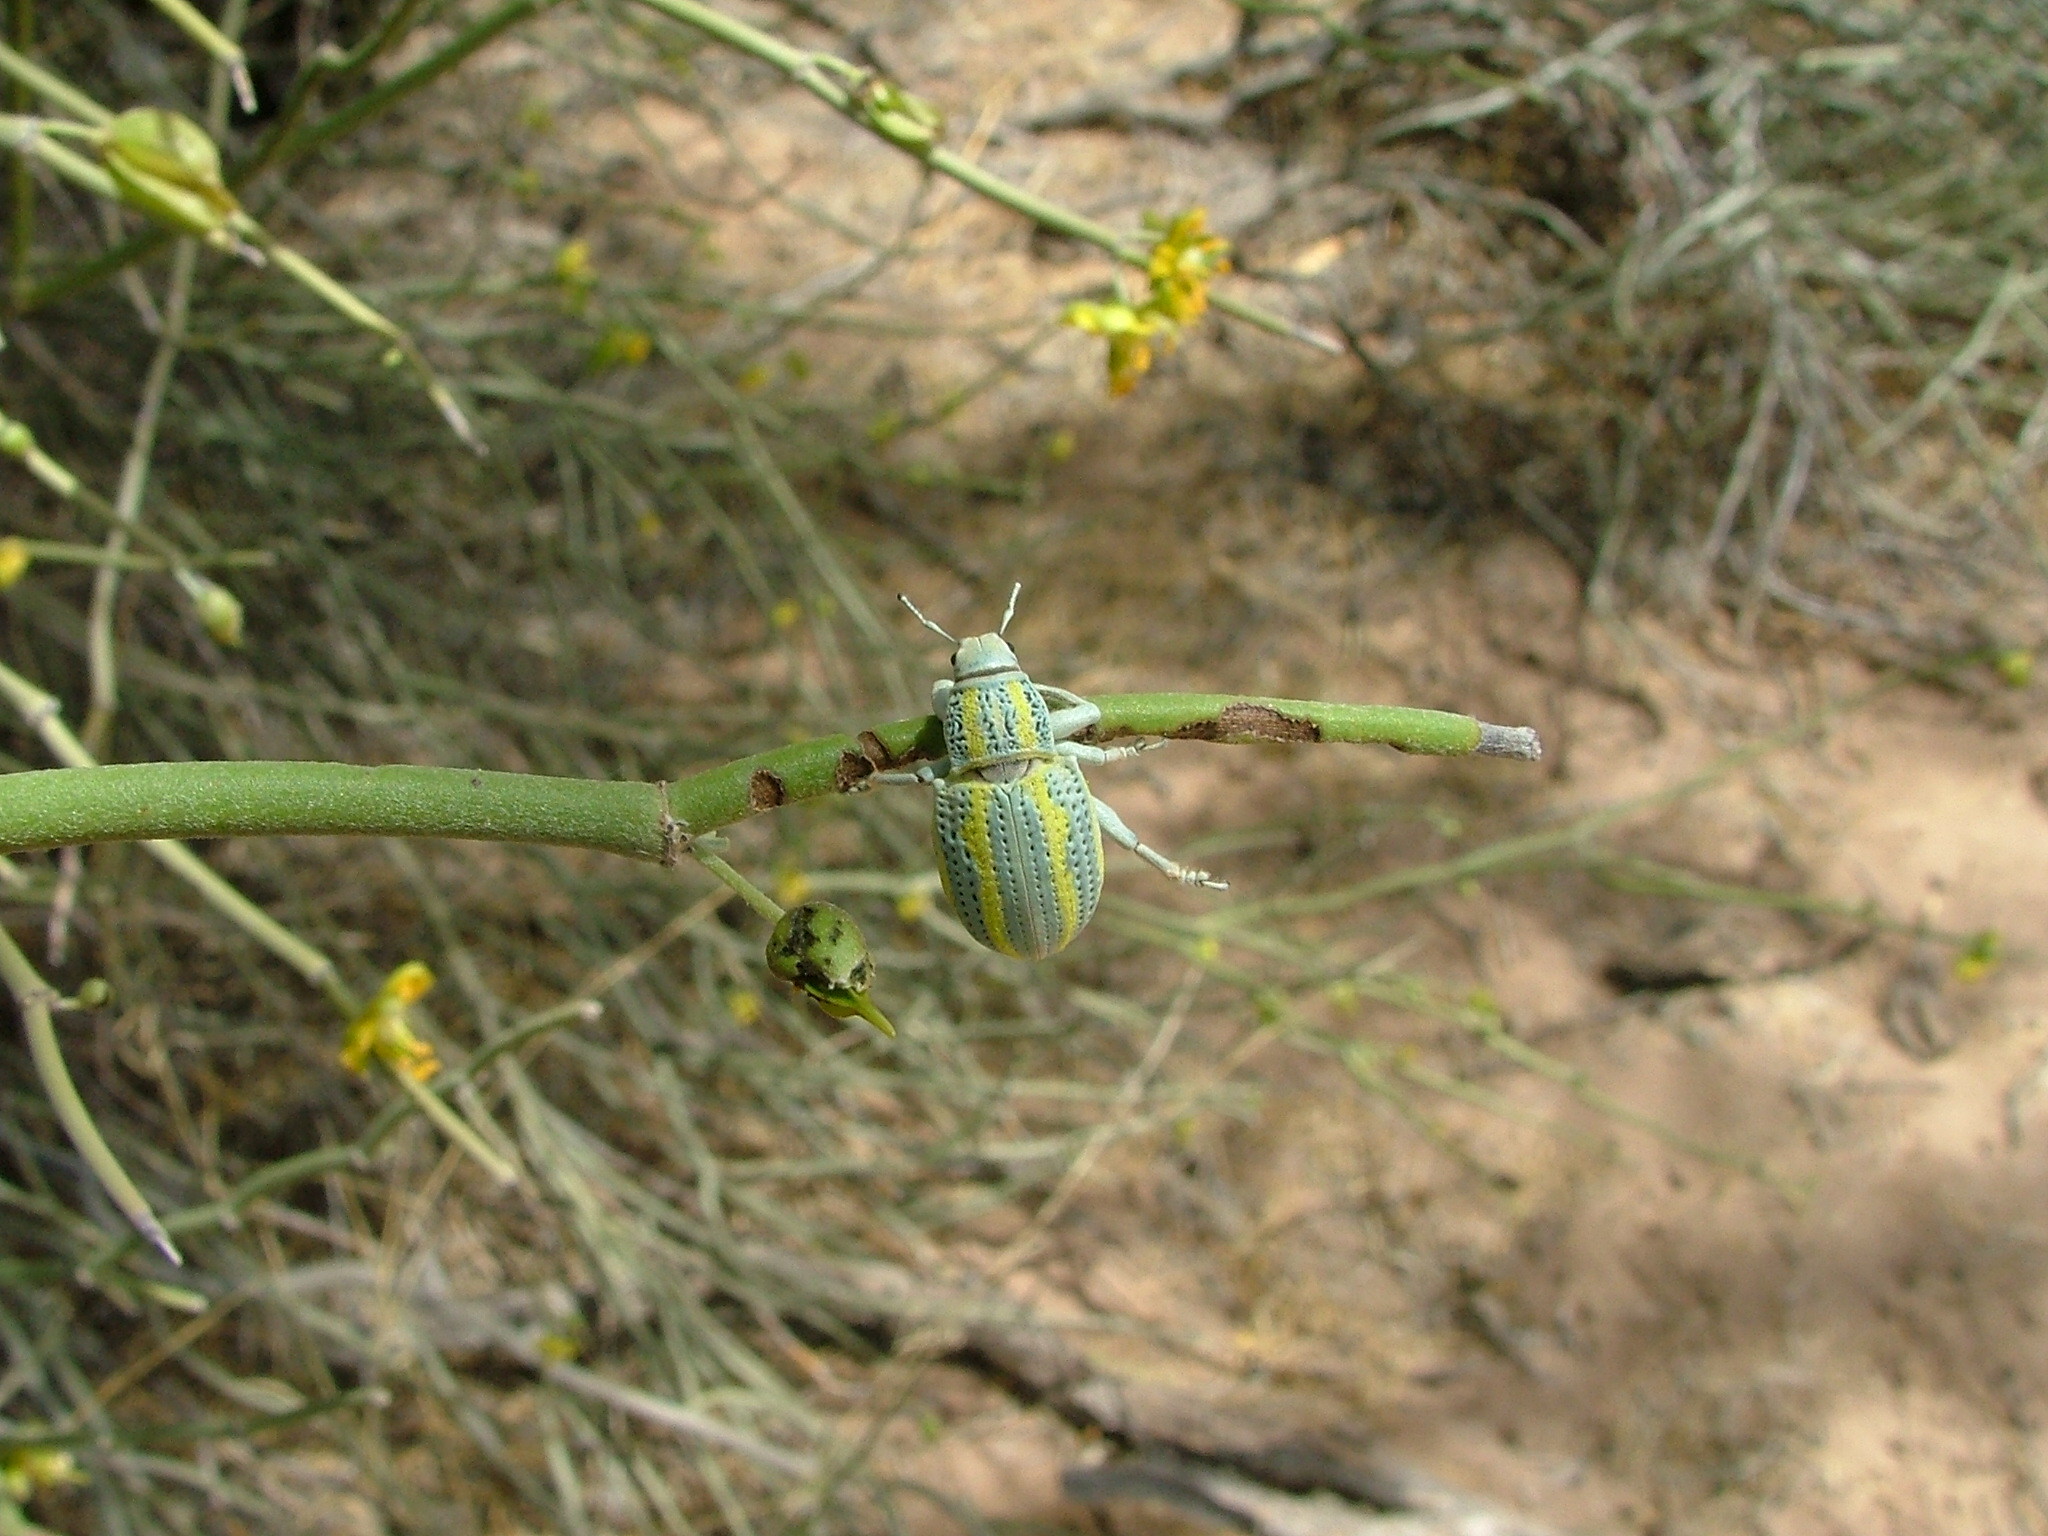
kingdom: Animalia
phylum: Arthropoda
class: Insecta
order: Coleoptera
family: Curculionidae
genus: Enoplopactus
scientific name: Enoplopactus lizeri
